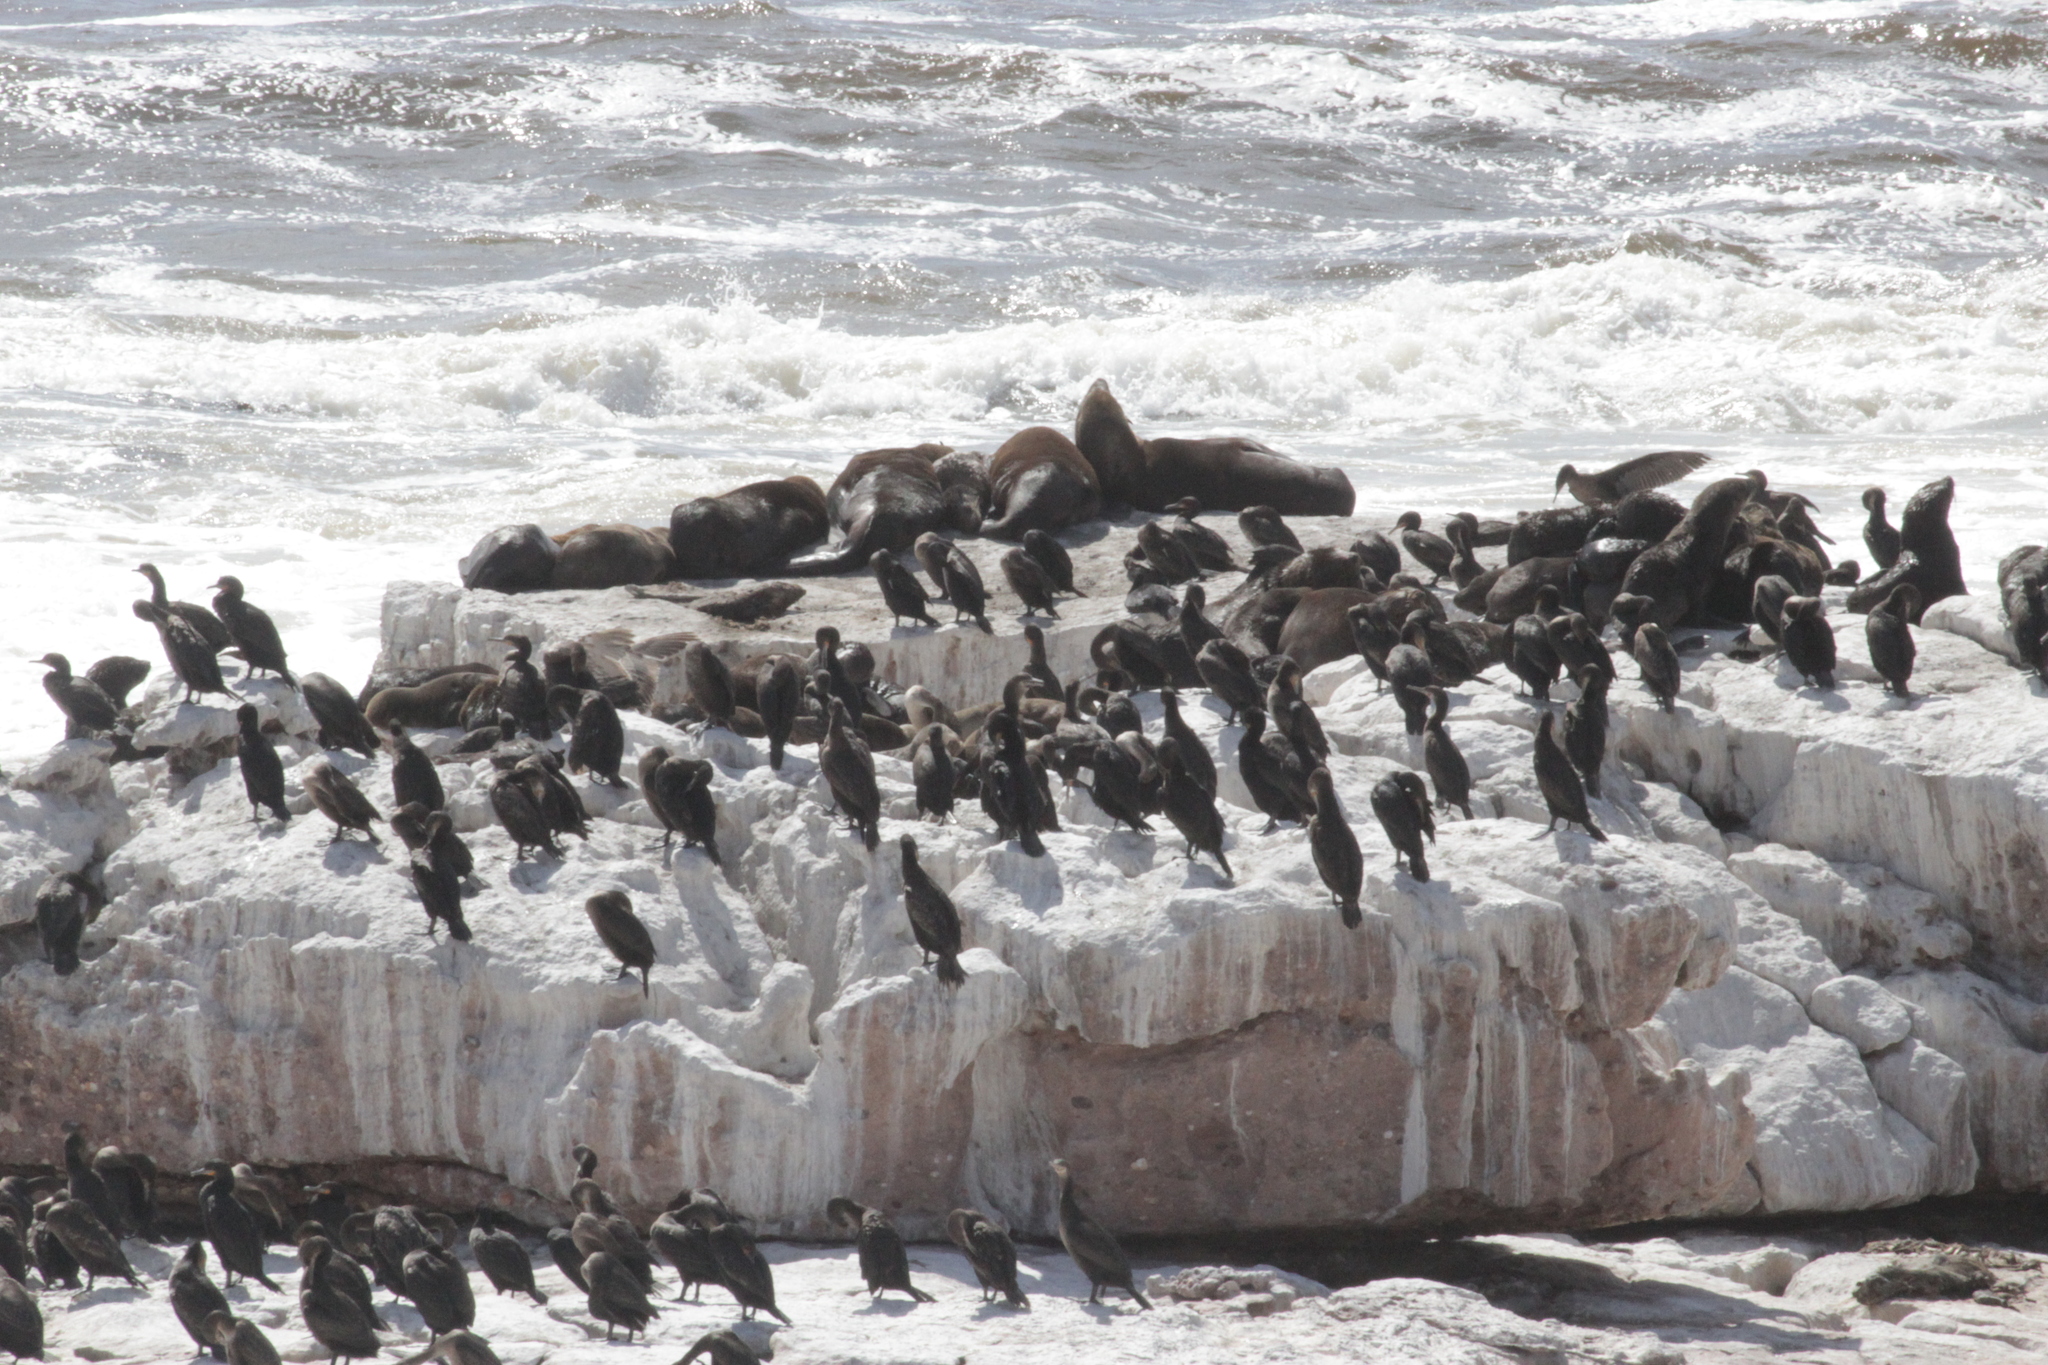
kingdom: Animalia
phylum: Chordata
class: Aves
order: Suliformes
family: Phalacrocoracidae
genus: Phalacrocorax
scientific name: Phalacrocorax capensis
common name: Cape cormorant
